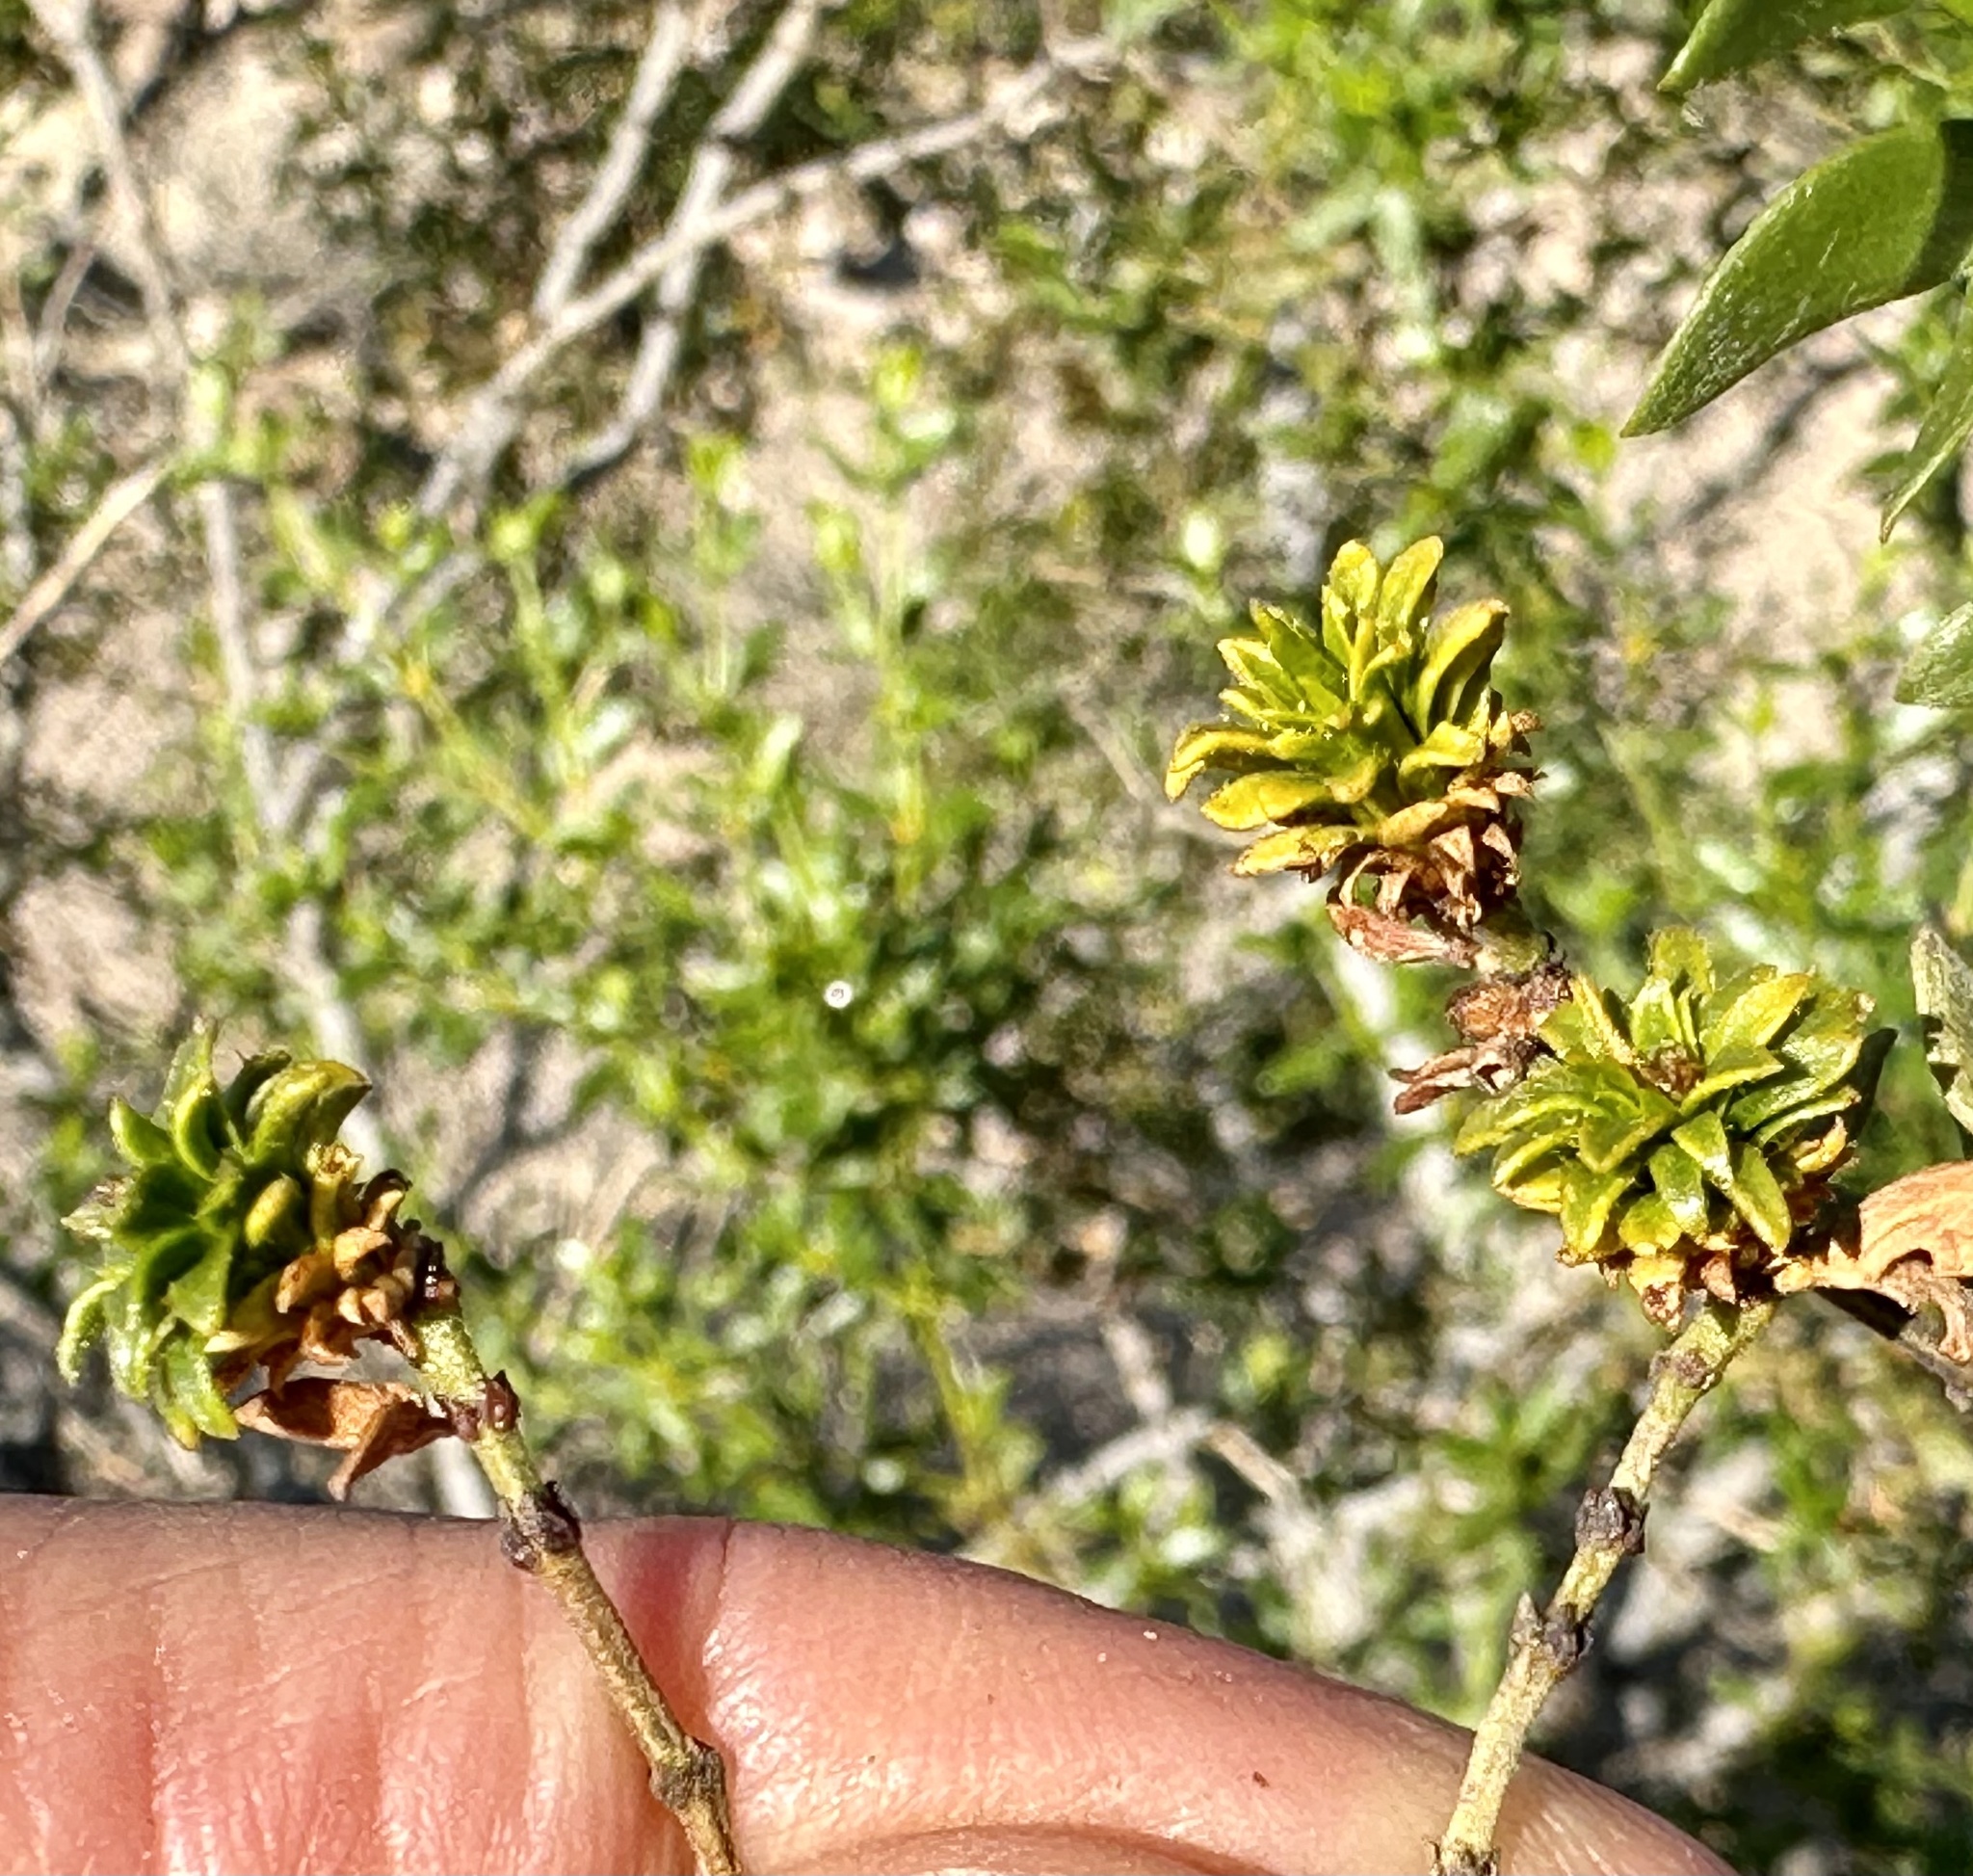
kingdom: Animalia
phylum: Arthropoda
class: Insecta
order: Diptera
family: Cecidomyiidae
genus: Asphondylia
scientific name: Asphondylia rosetta
